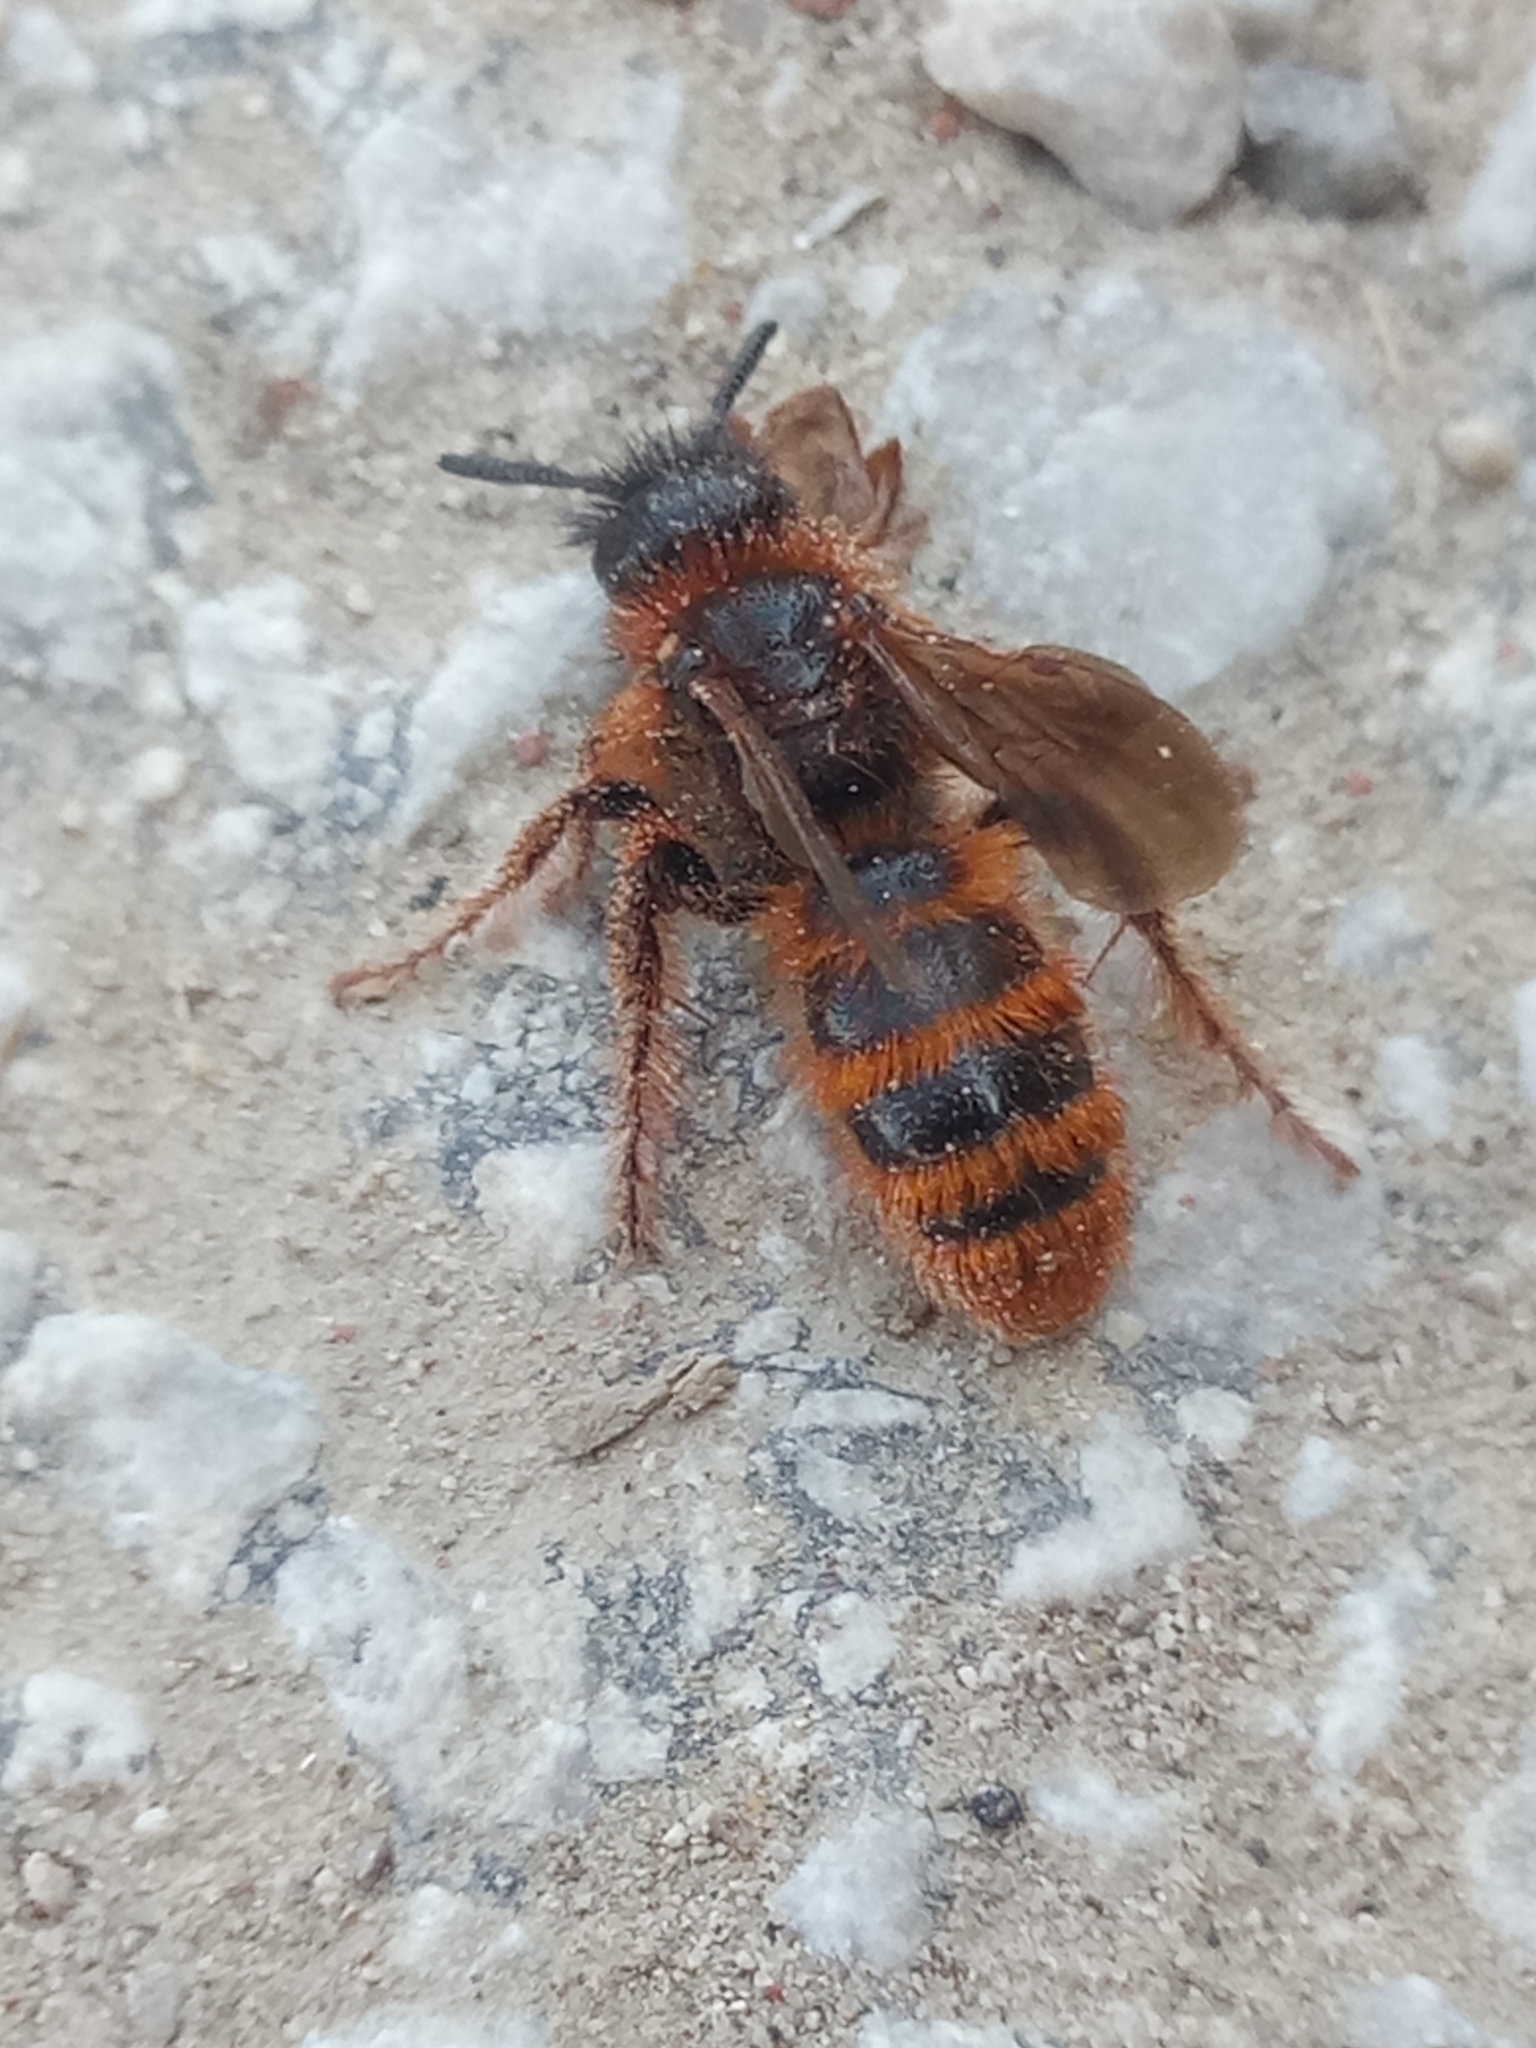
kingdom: Animalia
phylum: Arthropoda
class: Insecta
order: Hymenoptera
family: Scoliidae
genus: Dasyscolia
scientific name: Dasyscolia ciliata
